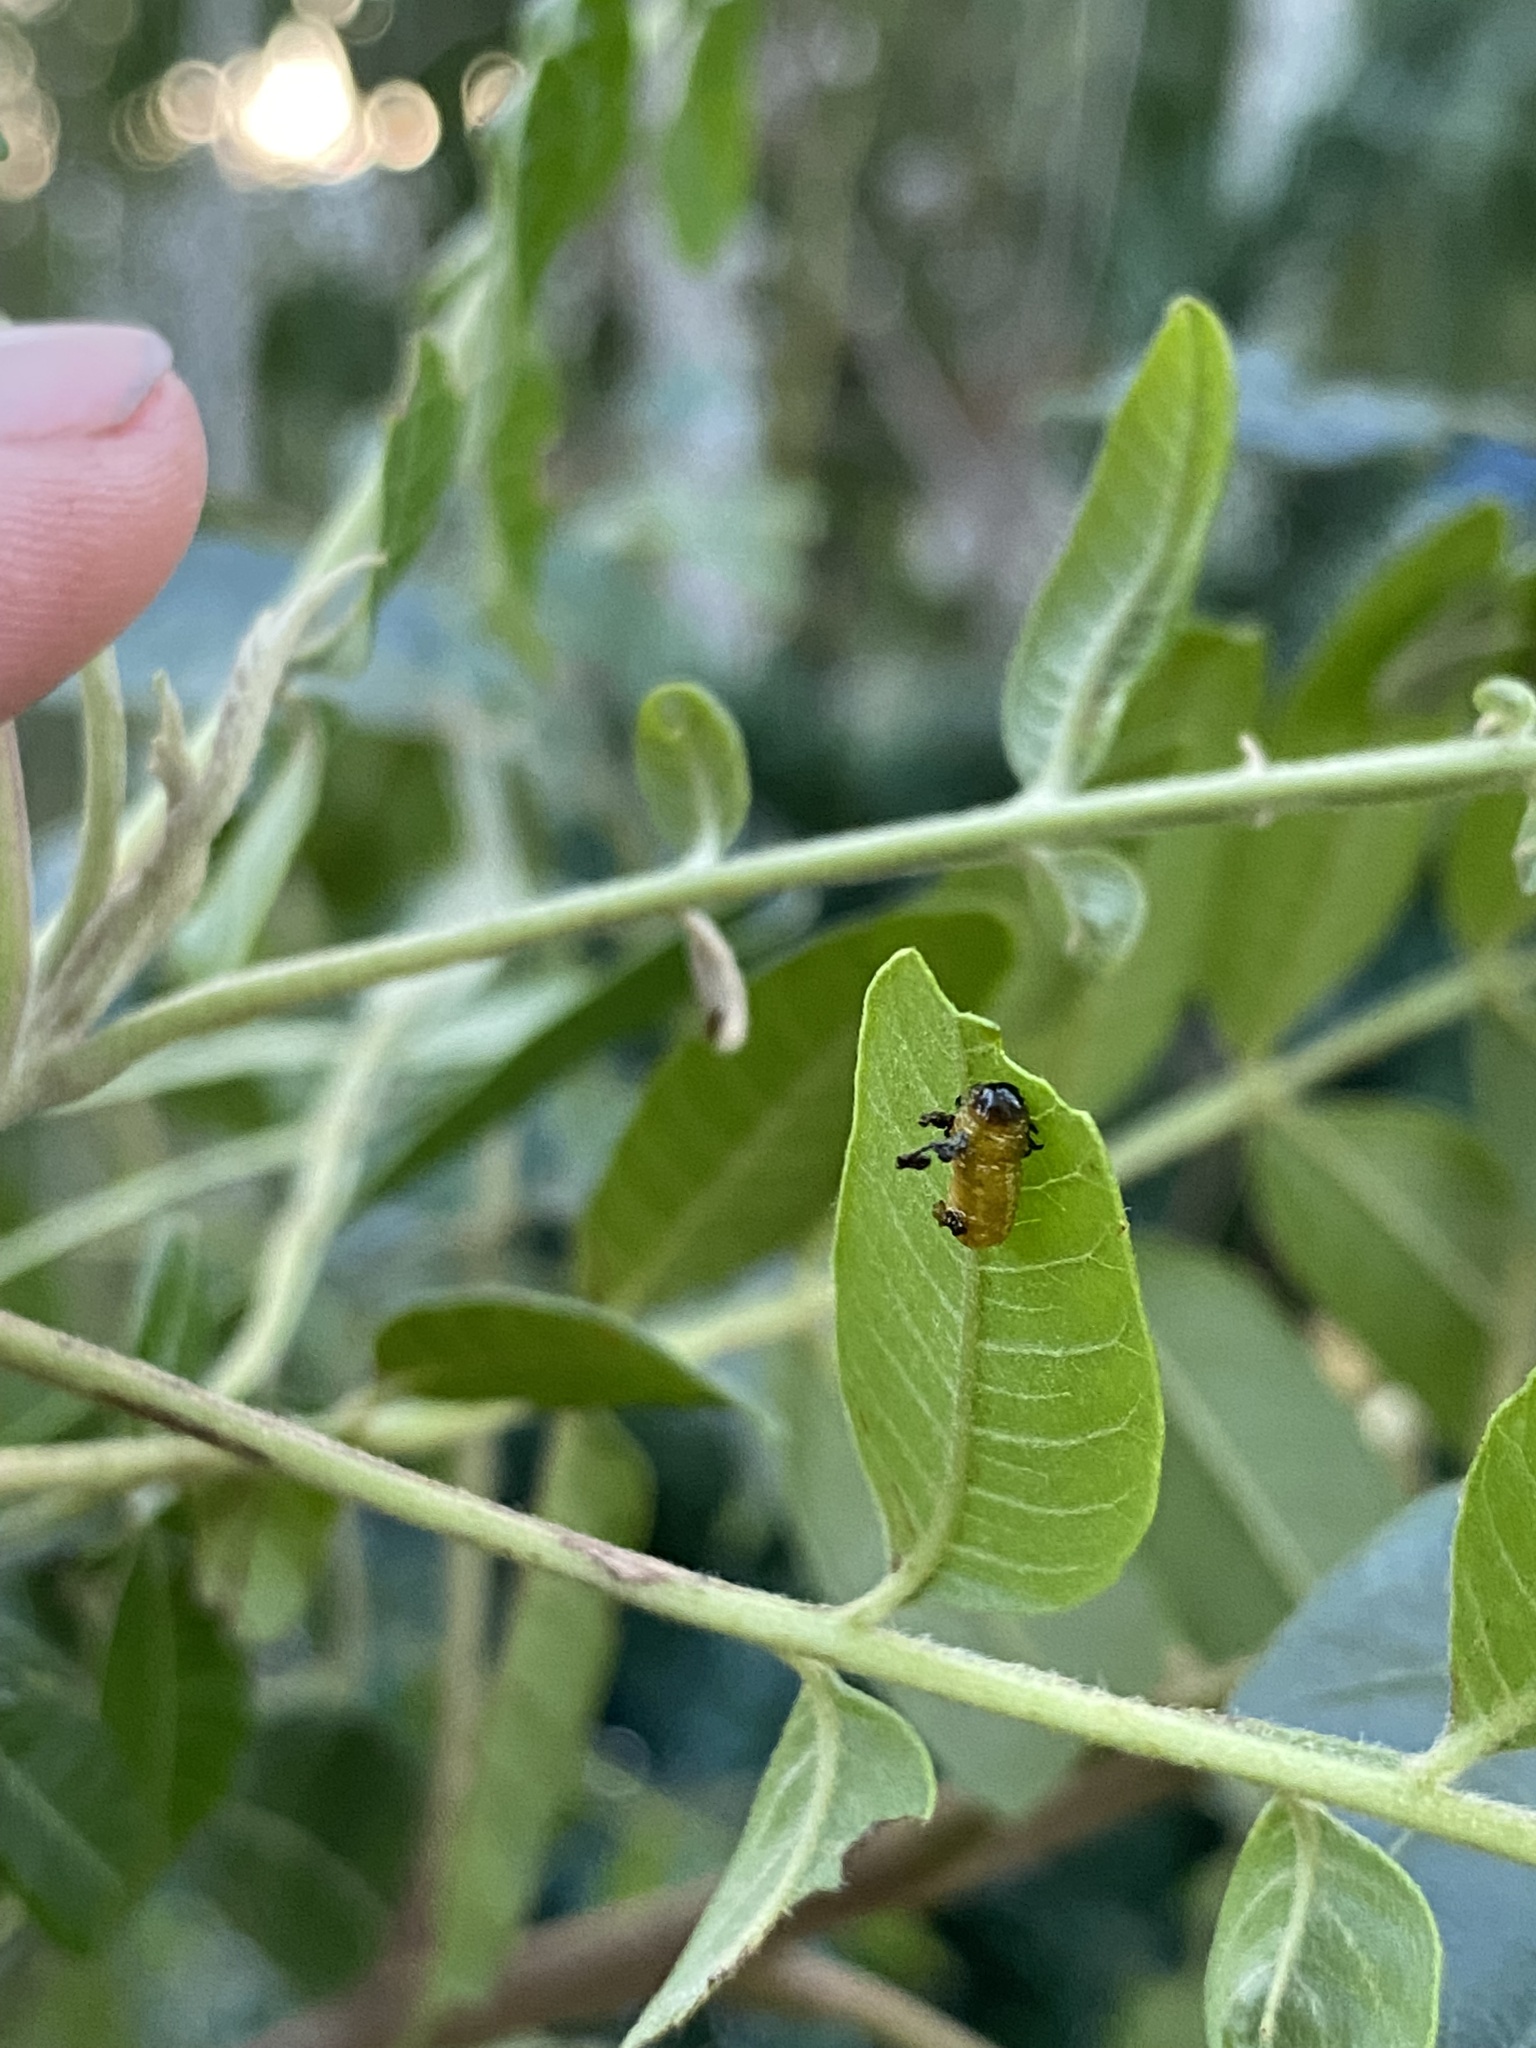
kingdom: Animalia
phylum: Arthropoda
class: Insecta
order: Coleoptera
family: Chrysomelidae
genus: Blepharida
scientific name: Blepharida rhois
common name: Sumac flea beetle
